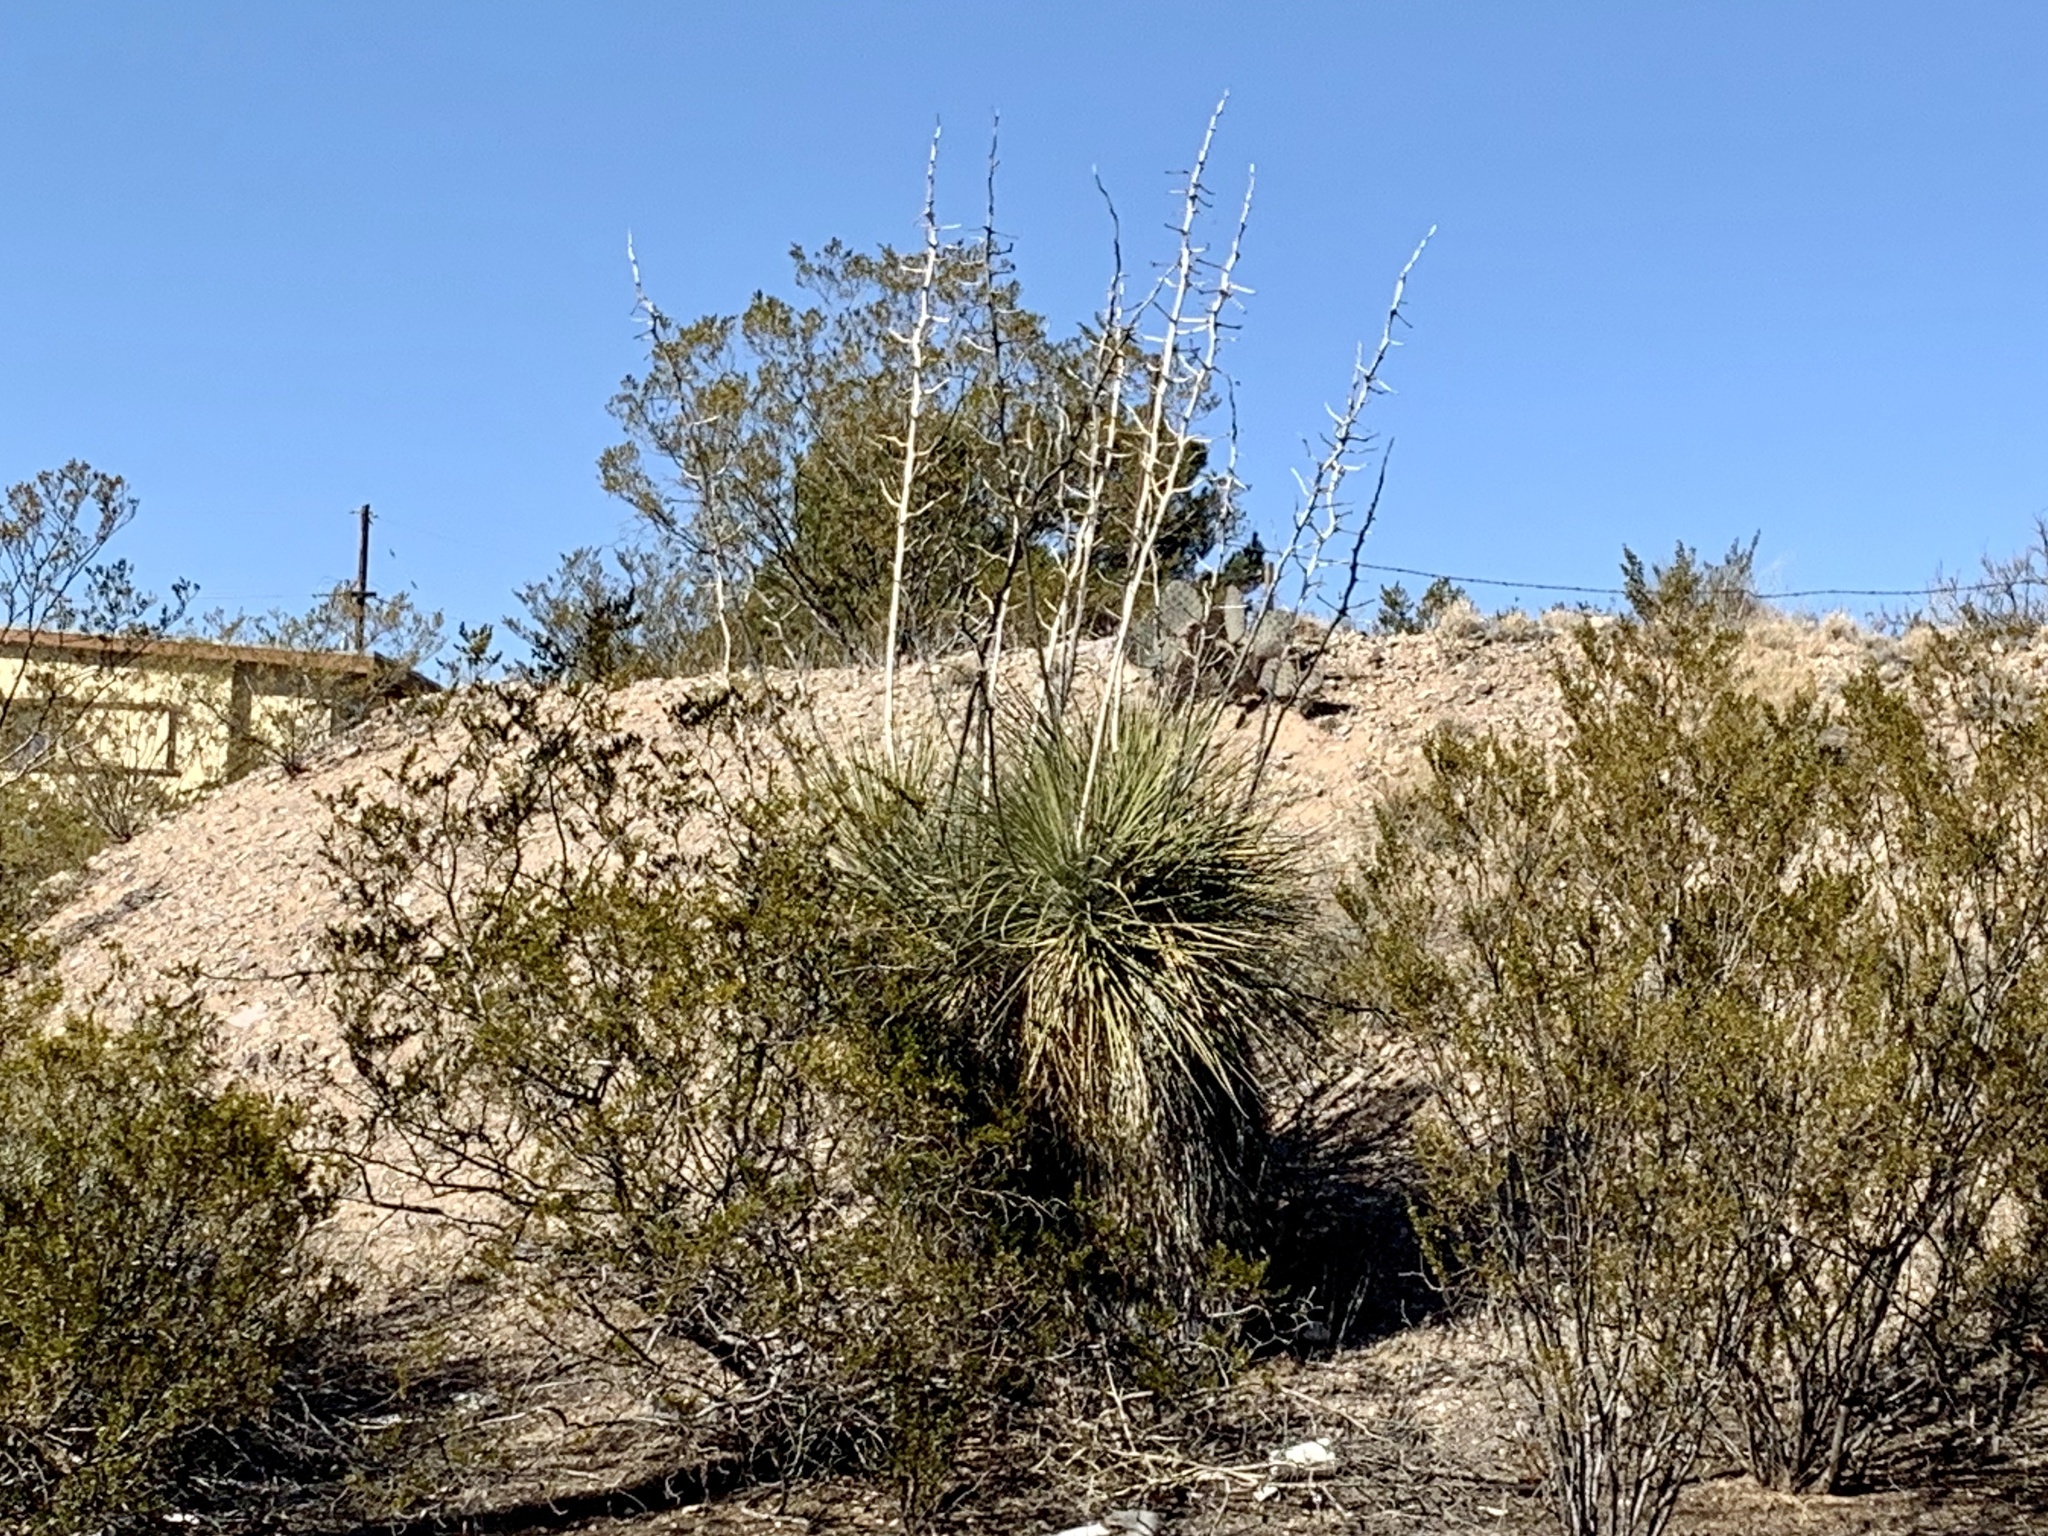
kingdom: Plantae
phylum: Tracheophyta
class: Liliopsida
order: Asparagales
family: Asparagaceae
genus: Yucca
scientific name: Yucca elata
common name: Palmella
